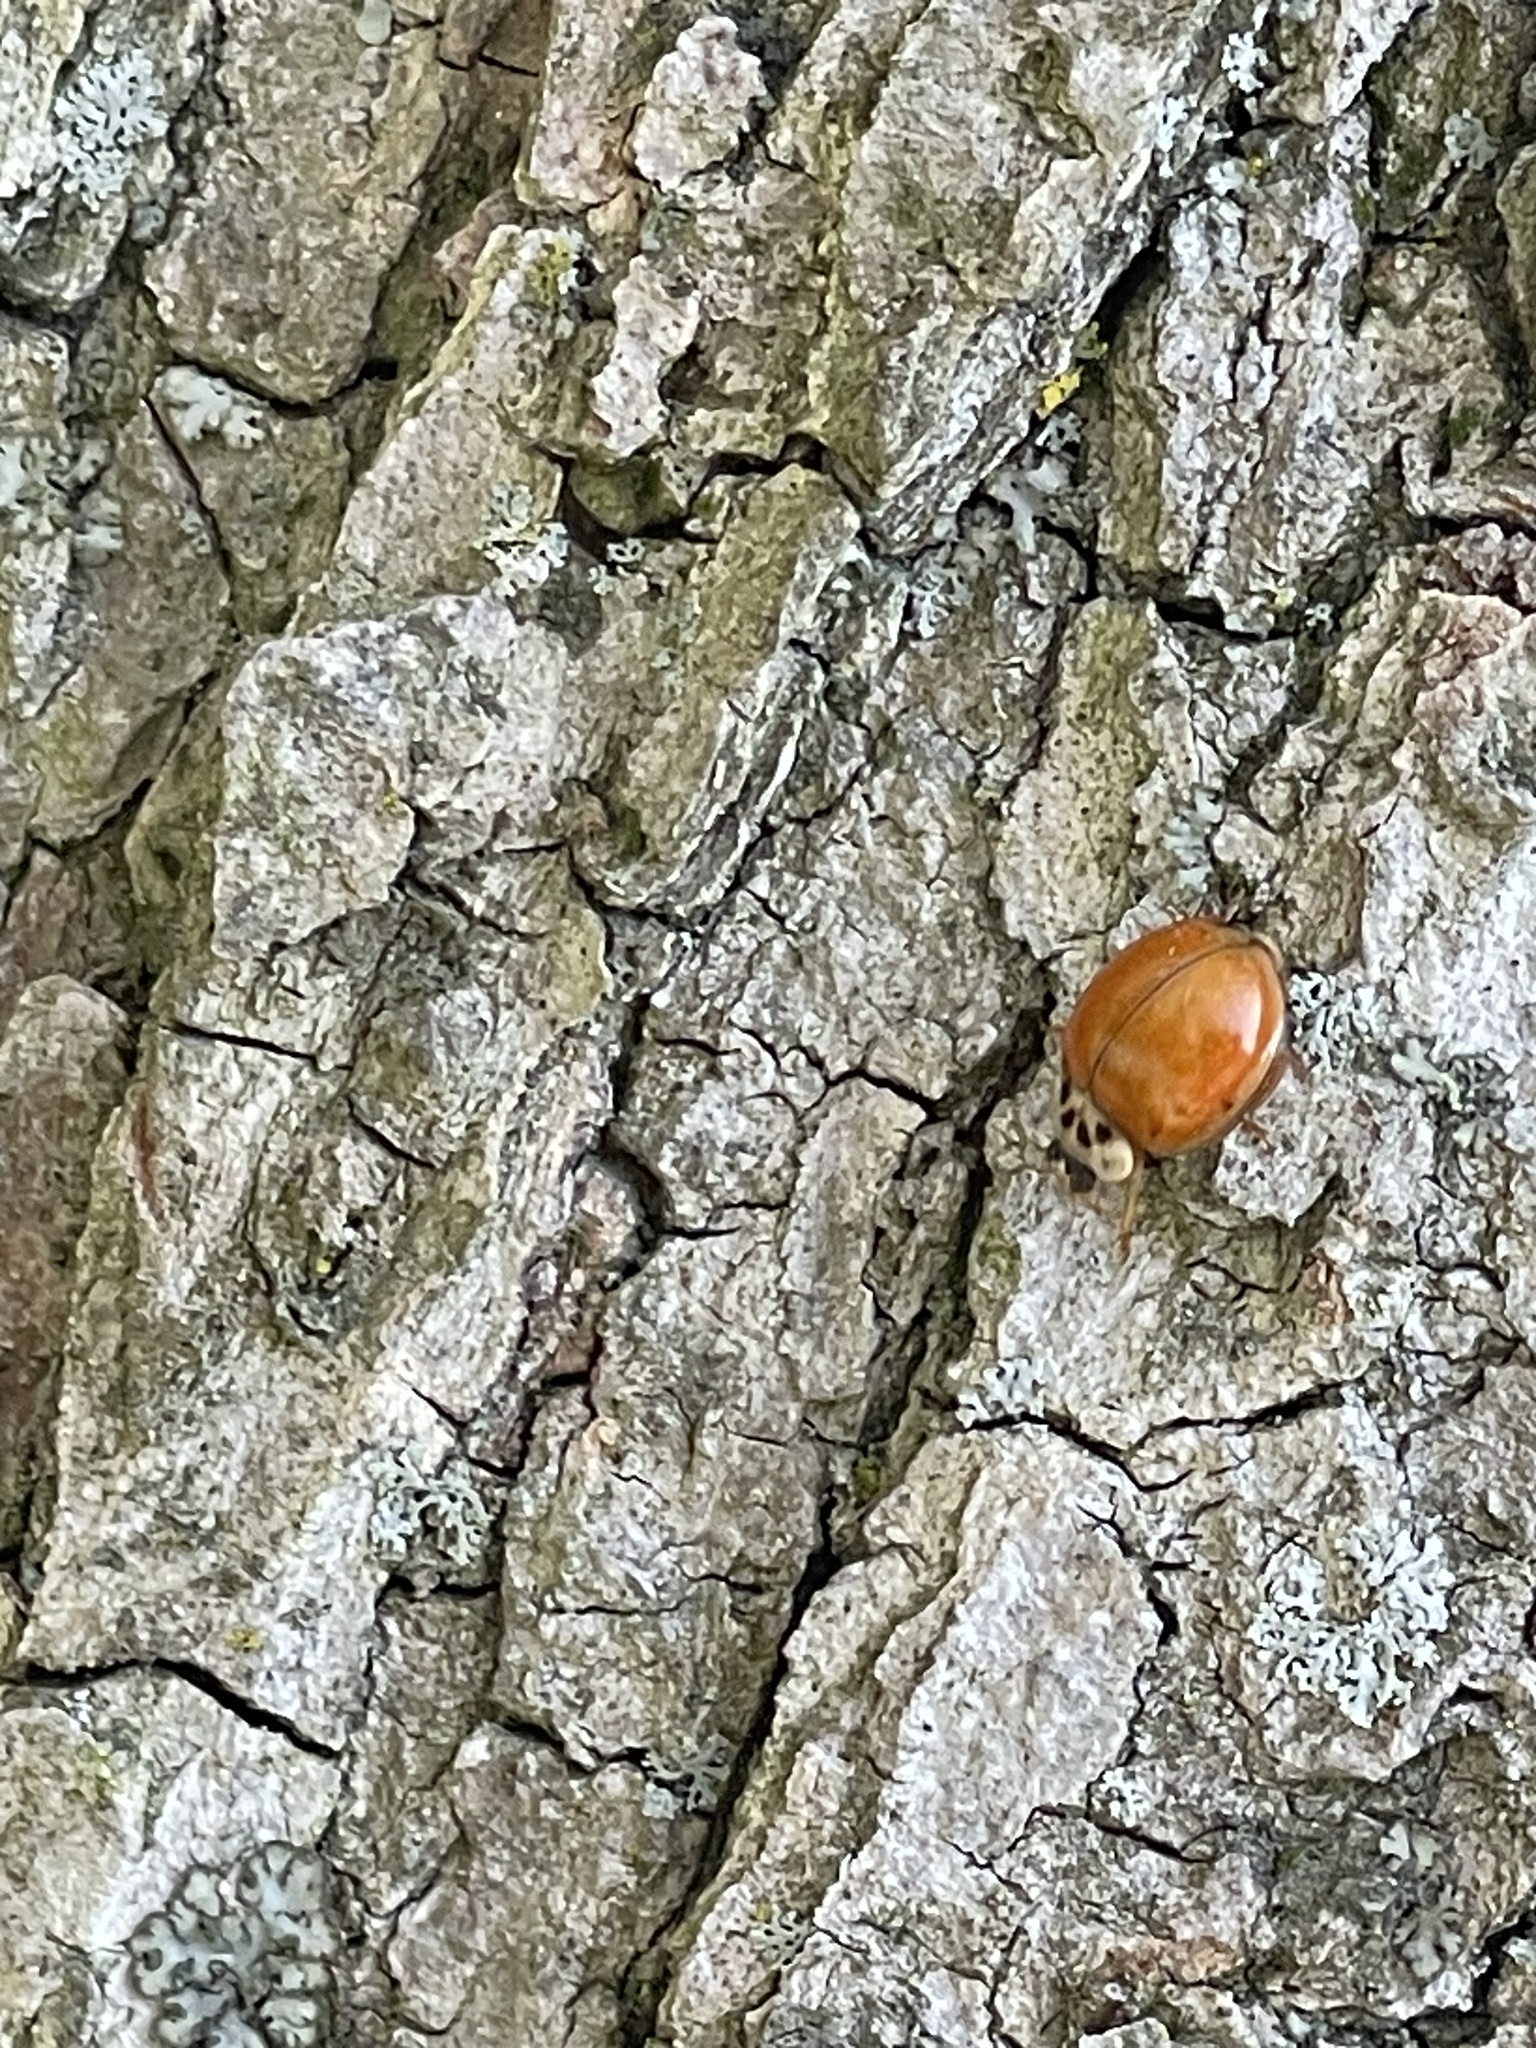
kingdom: Animalia
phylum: Arthropoda
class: Insecta
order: Coleoptera
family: Coccinellidae
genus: Harmonia
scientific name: Harmonia axyridis
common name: Harlequin ladybird
